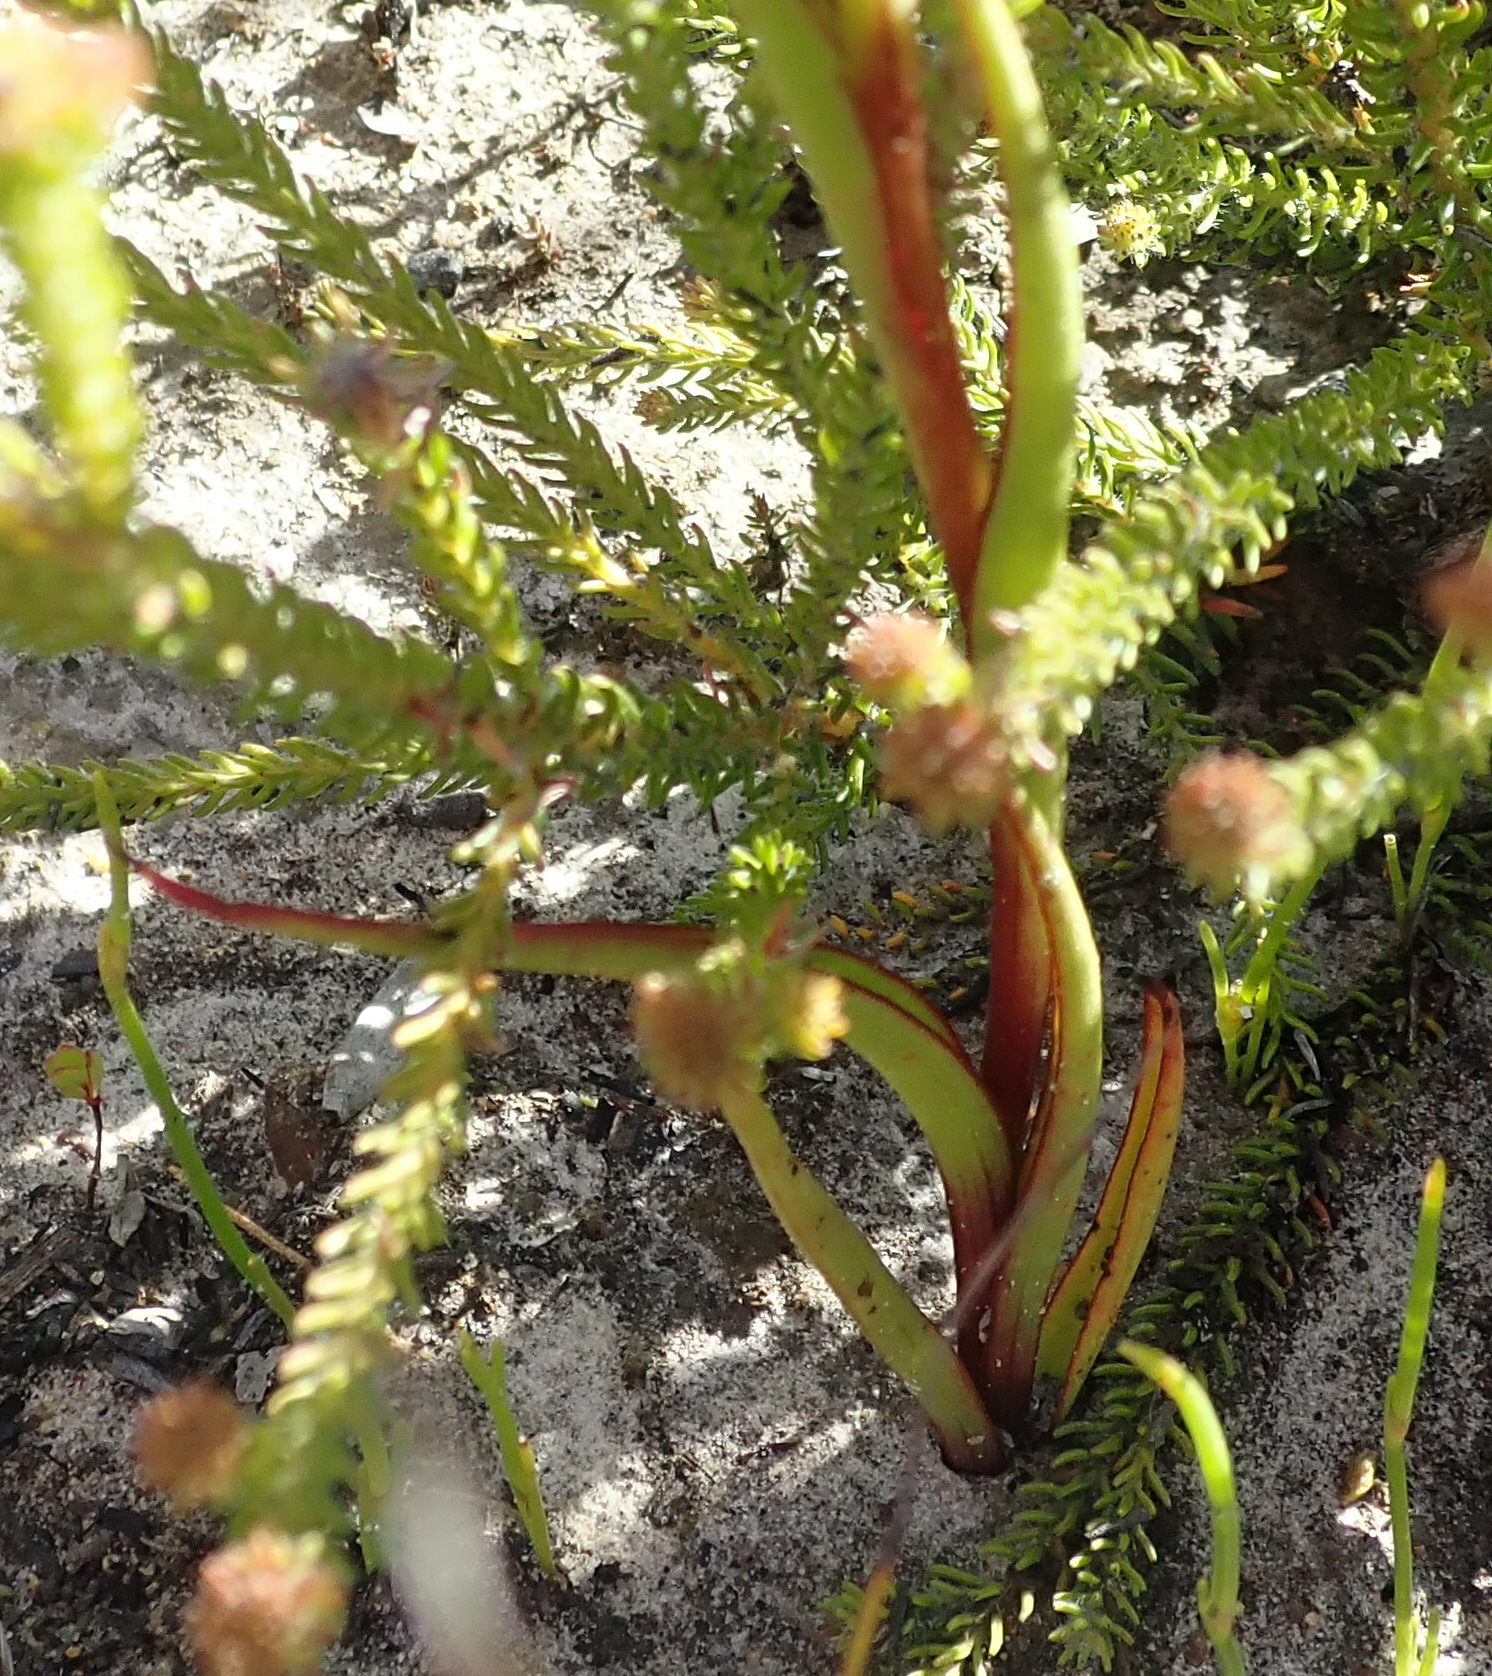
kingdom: Plantae
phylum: Tracheophyta
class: Liliopsida
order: Asparagales
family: Orchidaceae
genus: Disa
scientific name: Disa reticulata
